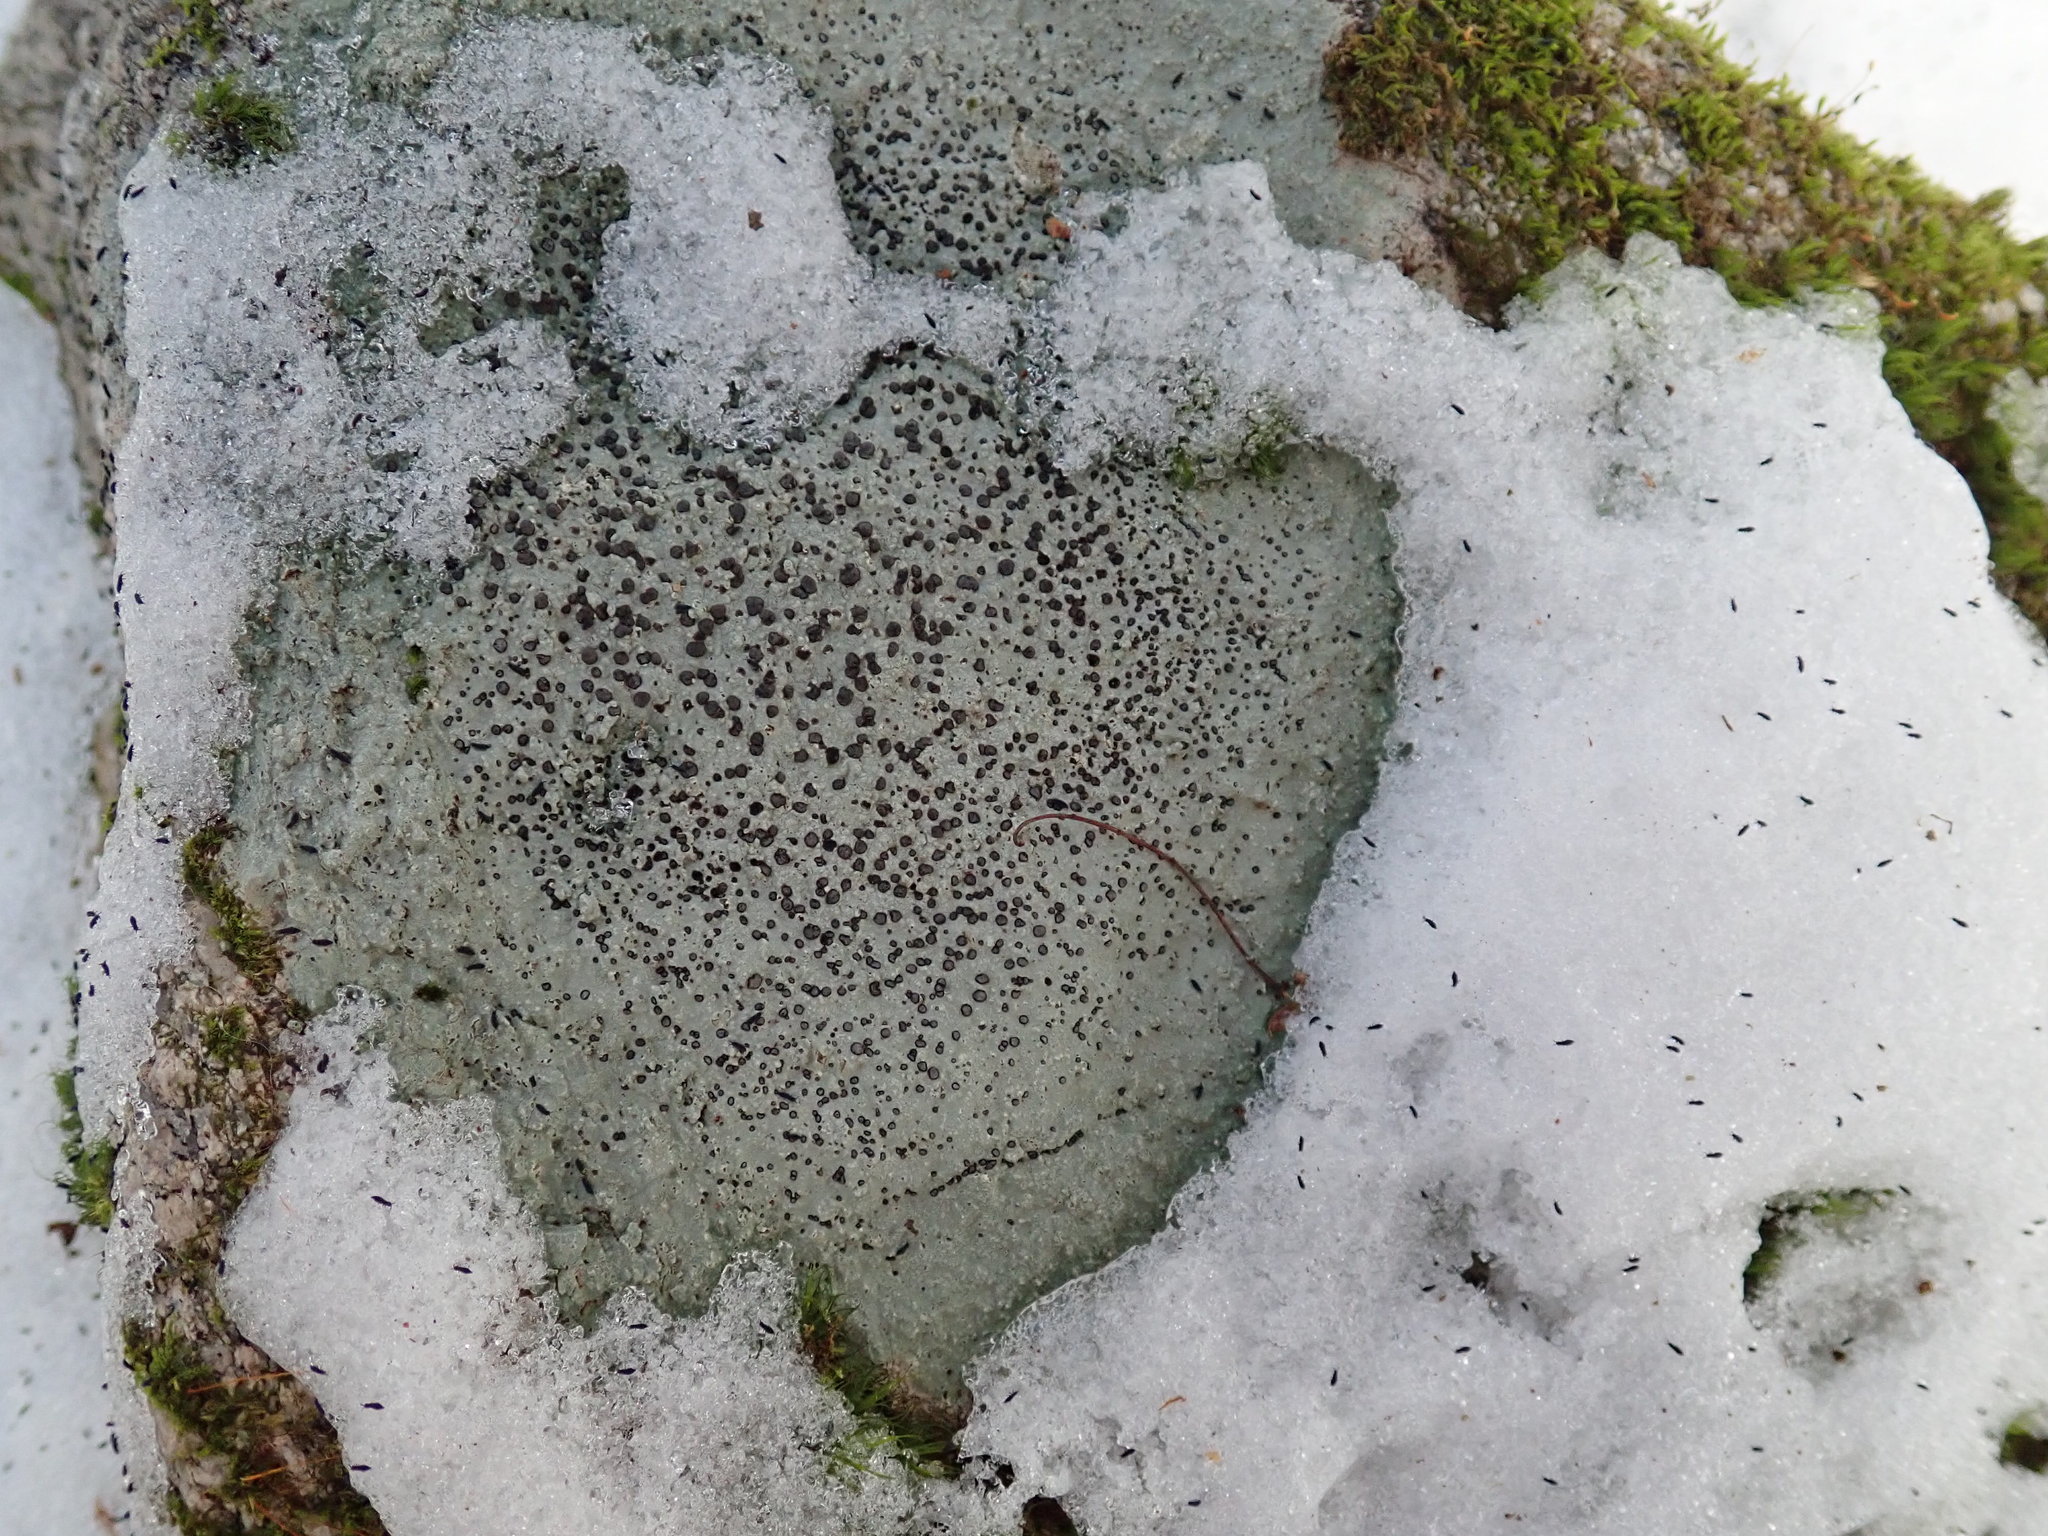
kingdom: Fungi
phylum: Ascomycota
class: Lecanoromycetes
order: Lecideales
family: Lecideaceae
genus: Porpidia
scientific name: Porpidia albocaerulescens
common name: Smokey-eyed boulder lichen
